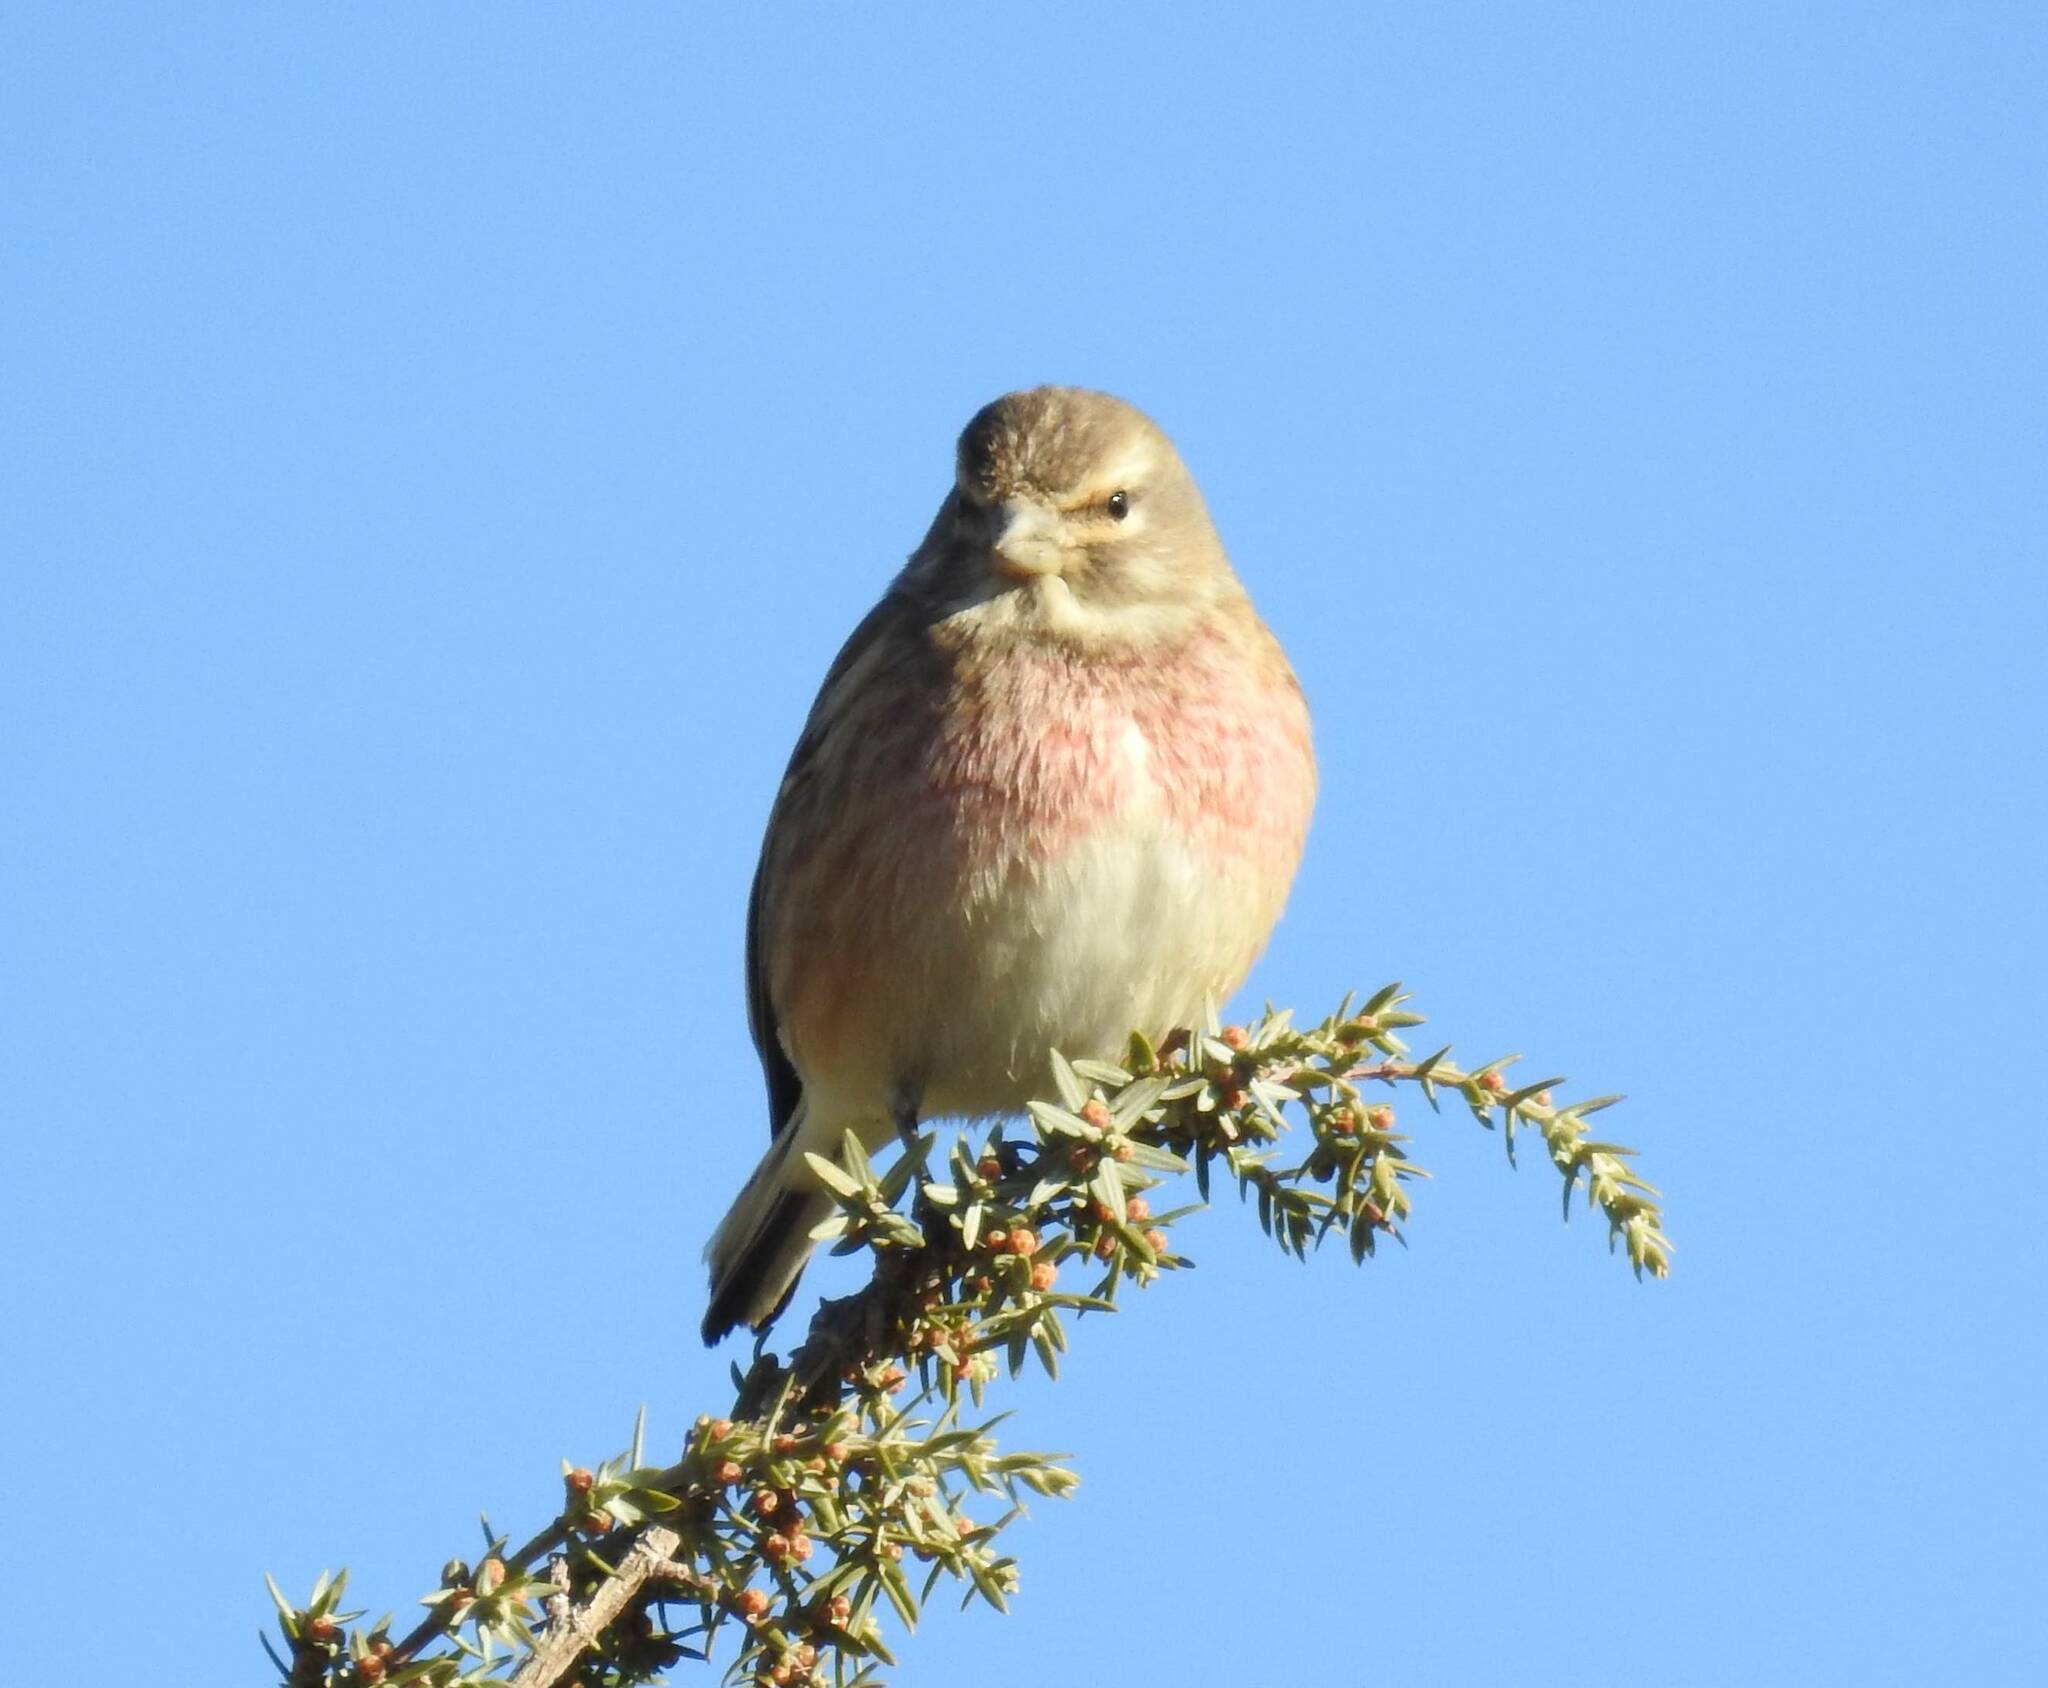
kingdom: Animalia
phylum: Chordata
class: Aves
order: Passeriformes
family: Fringillidae
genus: Linaria
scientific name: Linaria cannabina
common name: Common linnet
